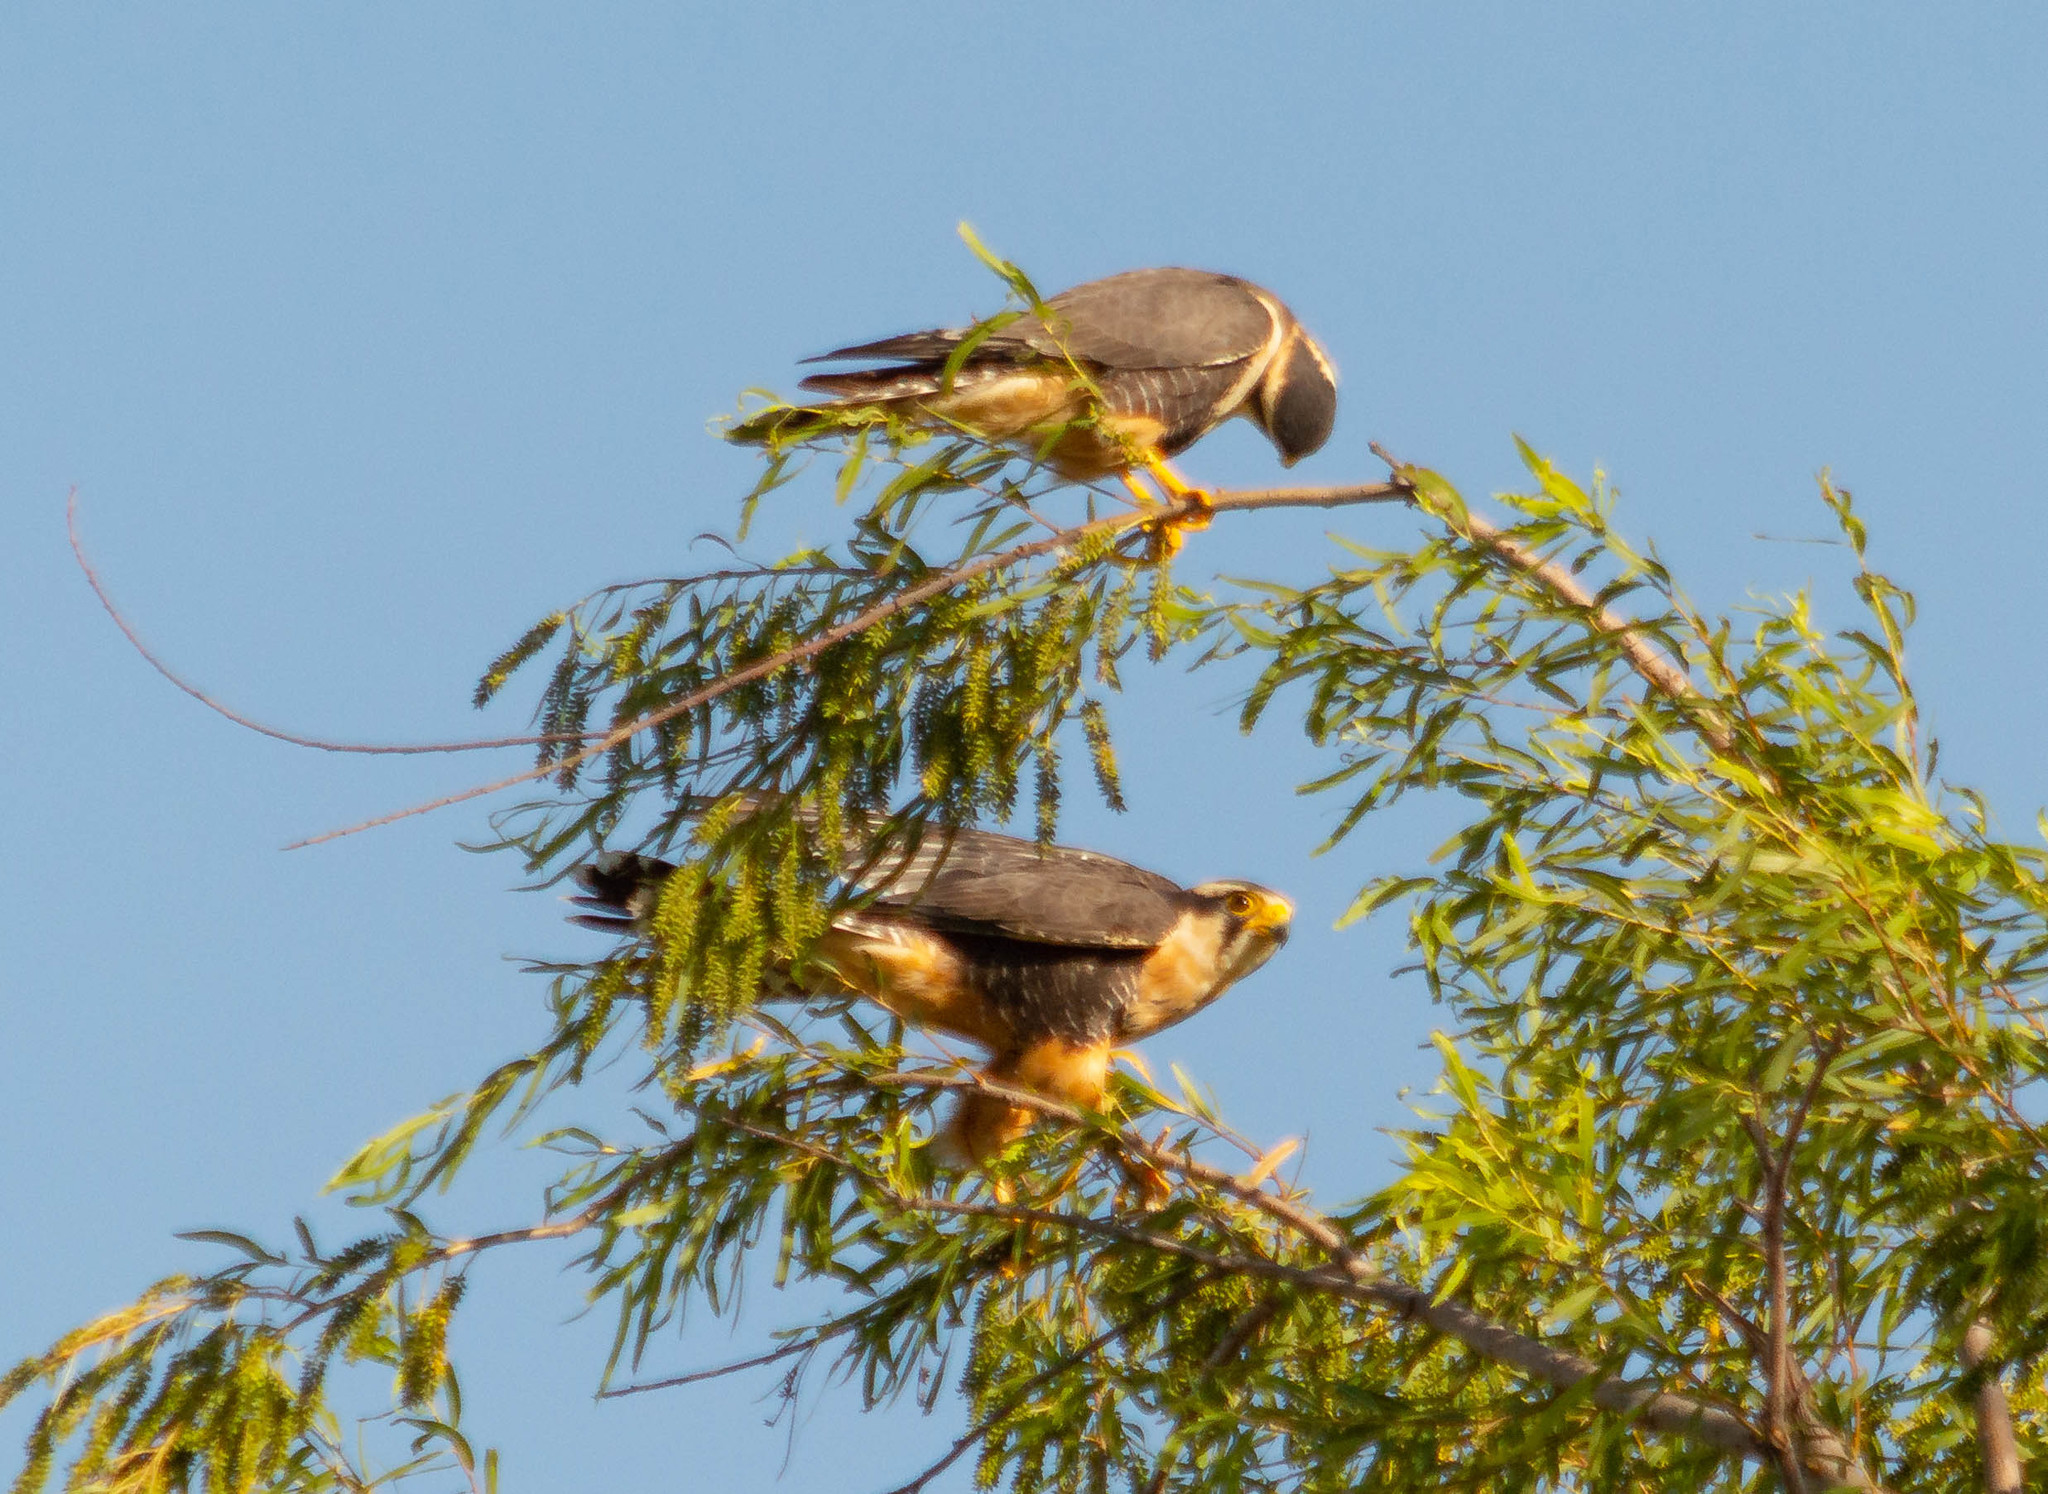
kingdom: Animalia
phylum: Chordata
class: Aves
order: Falconiformes
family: Falconidae
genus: Falco
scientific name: Falco femoralis
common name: Aplomado falcon
